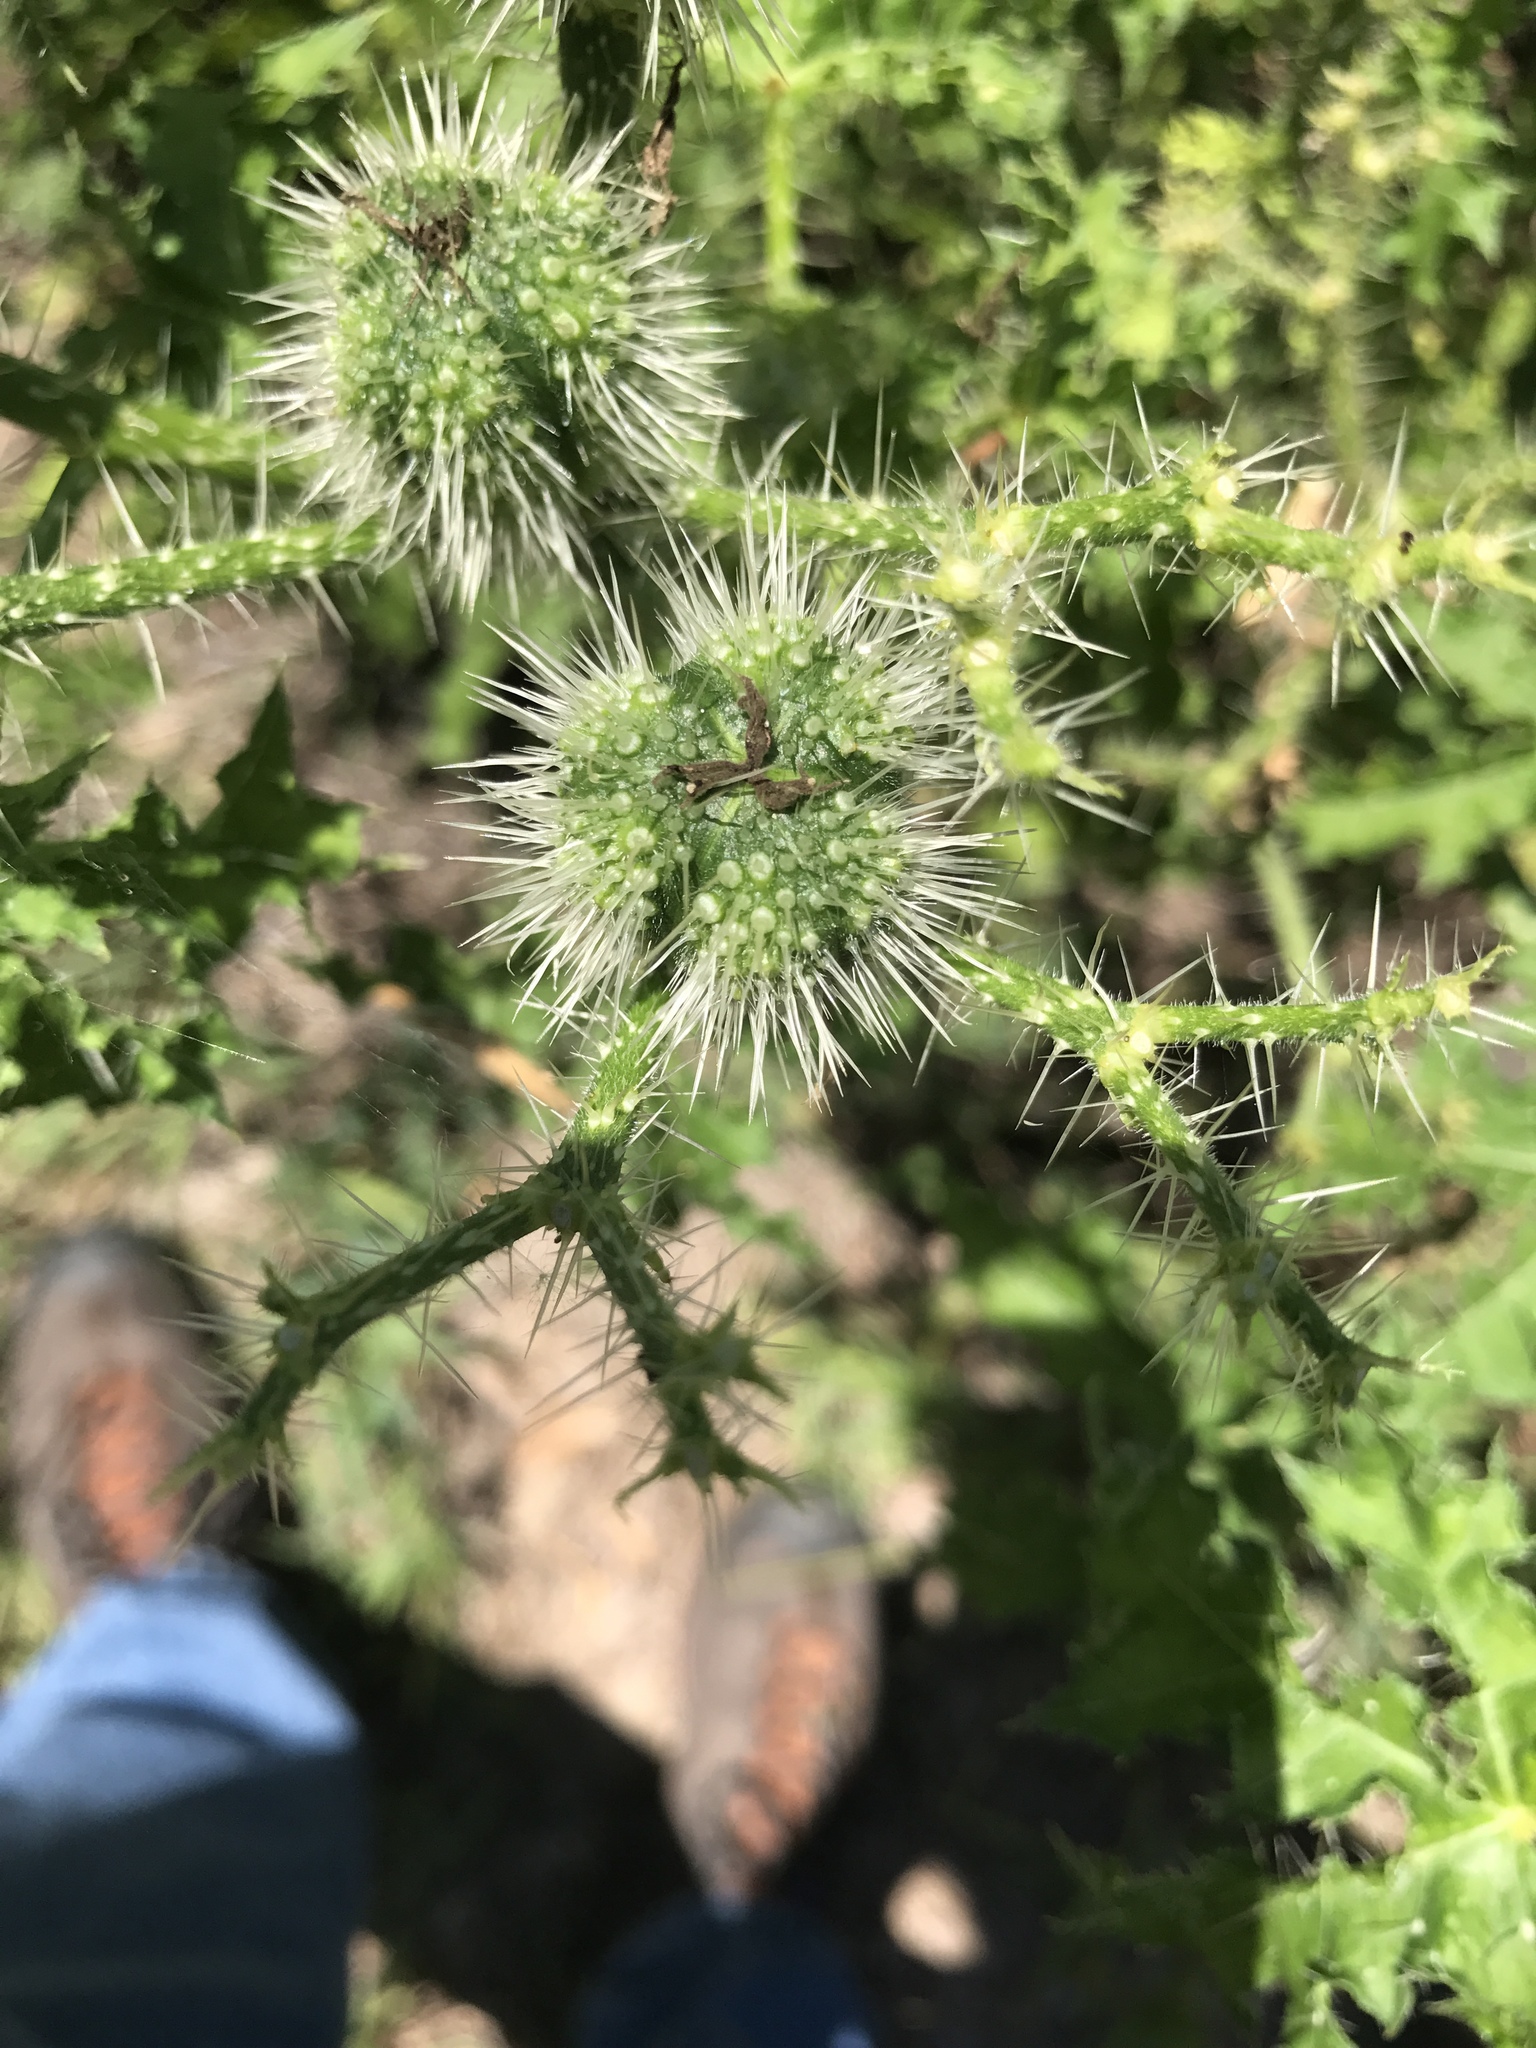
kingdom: Plantae
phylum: Tracheophyta
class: Magnoliopsida
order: Malpighiales
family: Euphorbiaceae
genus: Cnidoscolus
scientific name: Cnidoscolus texanus
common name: Texas bull-nettle
